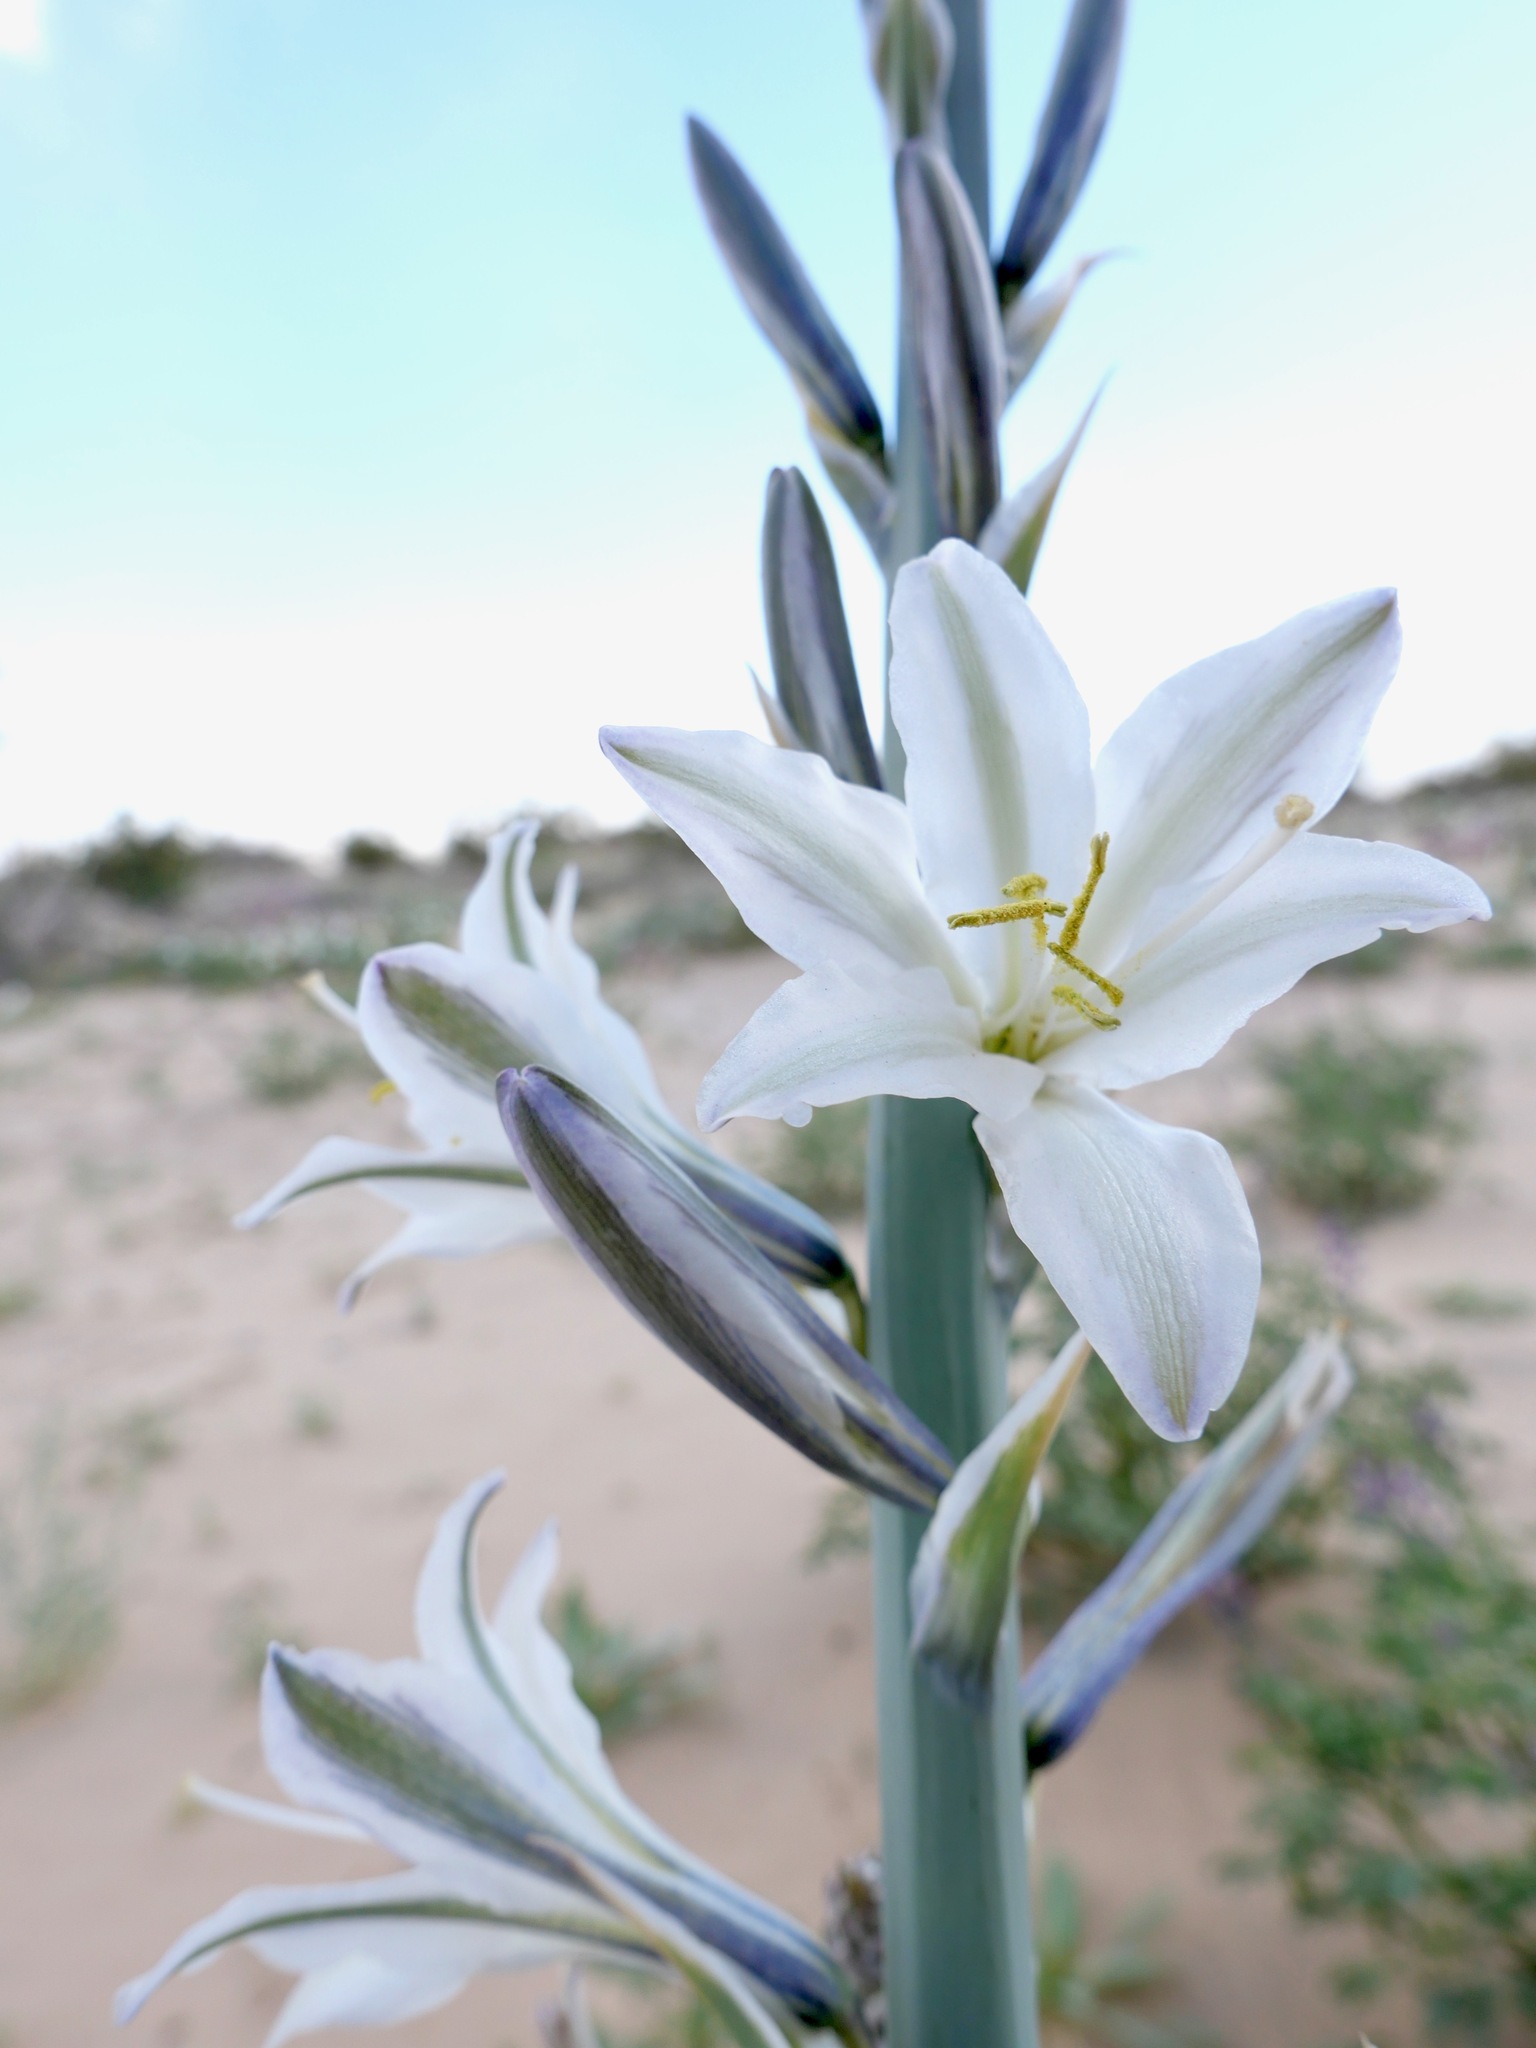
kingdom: Plantae
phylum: Tracheophyta
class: Liliopsida
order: Asparagales
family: Asparagaceae
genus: Hesperocallis
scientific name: Hesperocallis undulata
